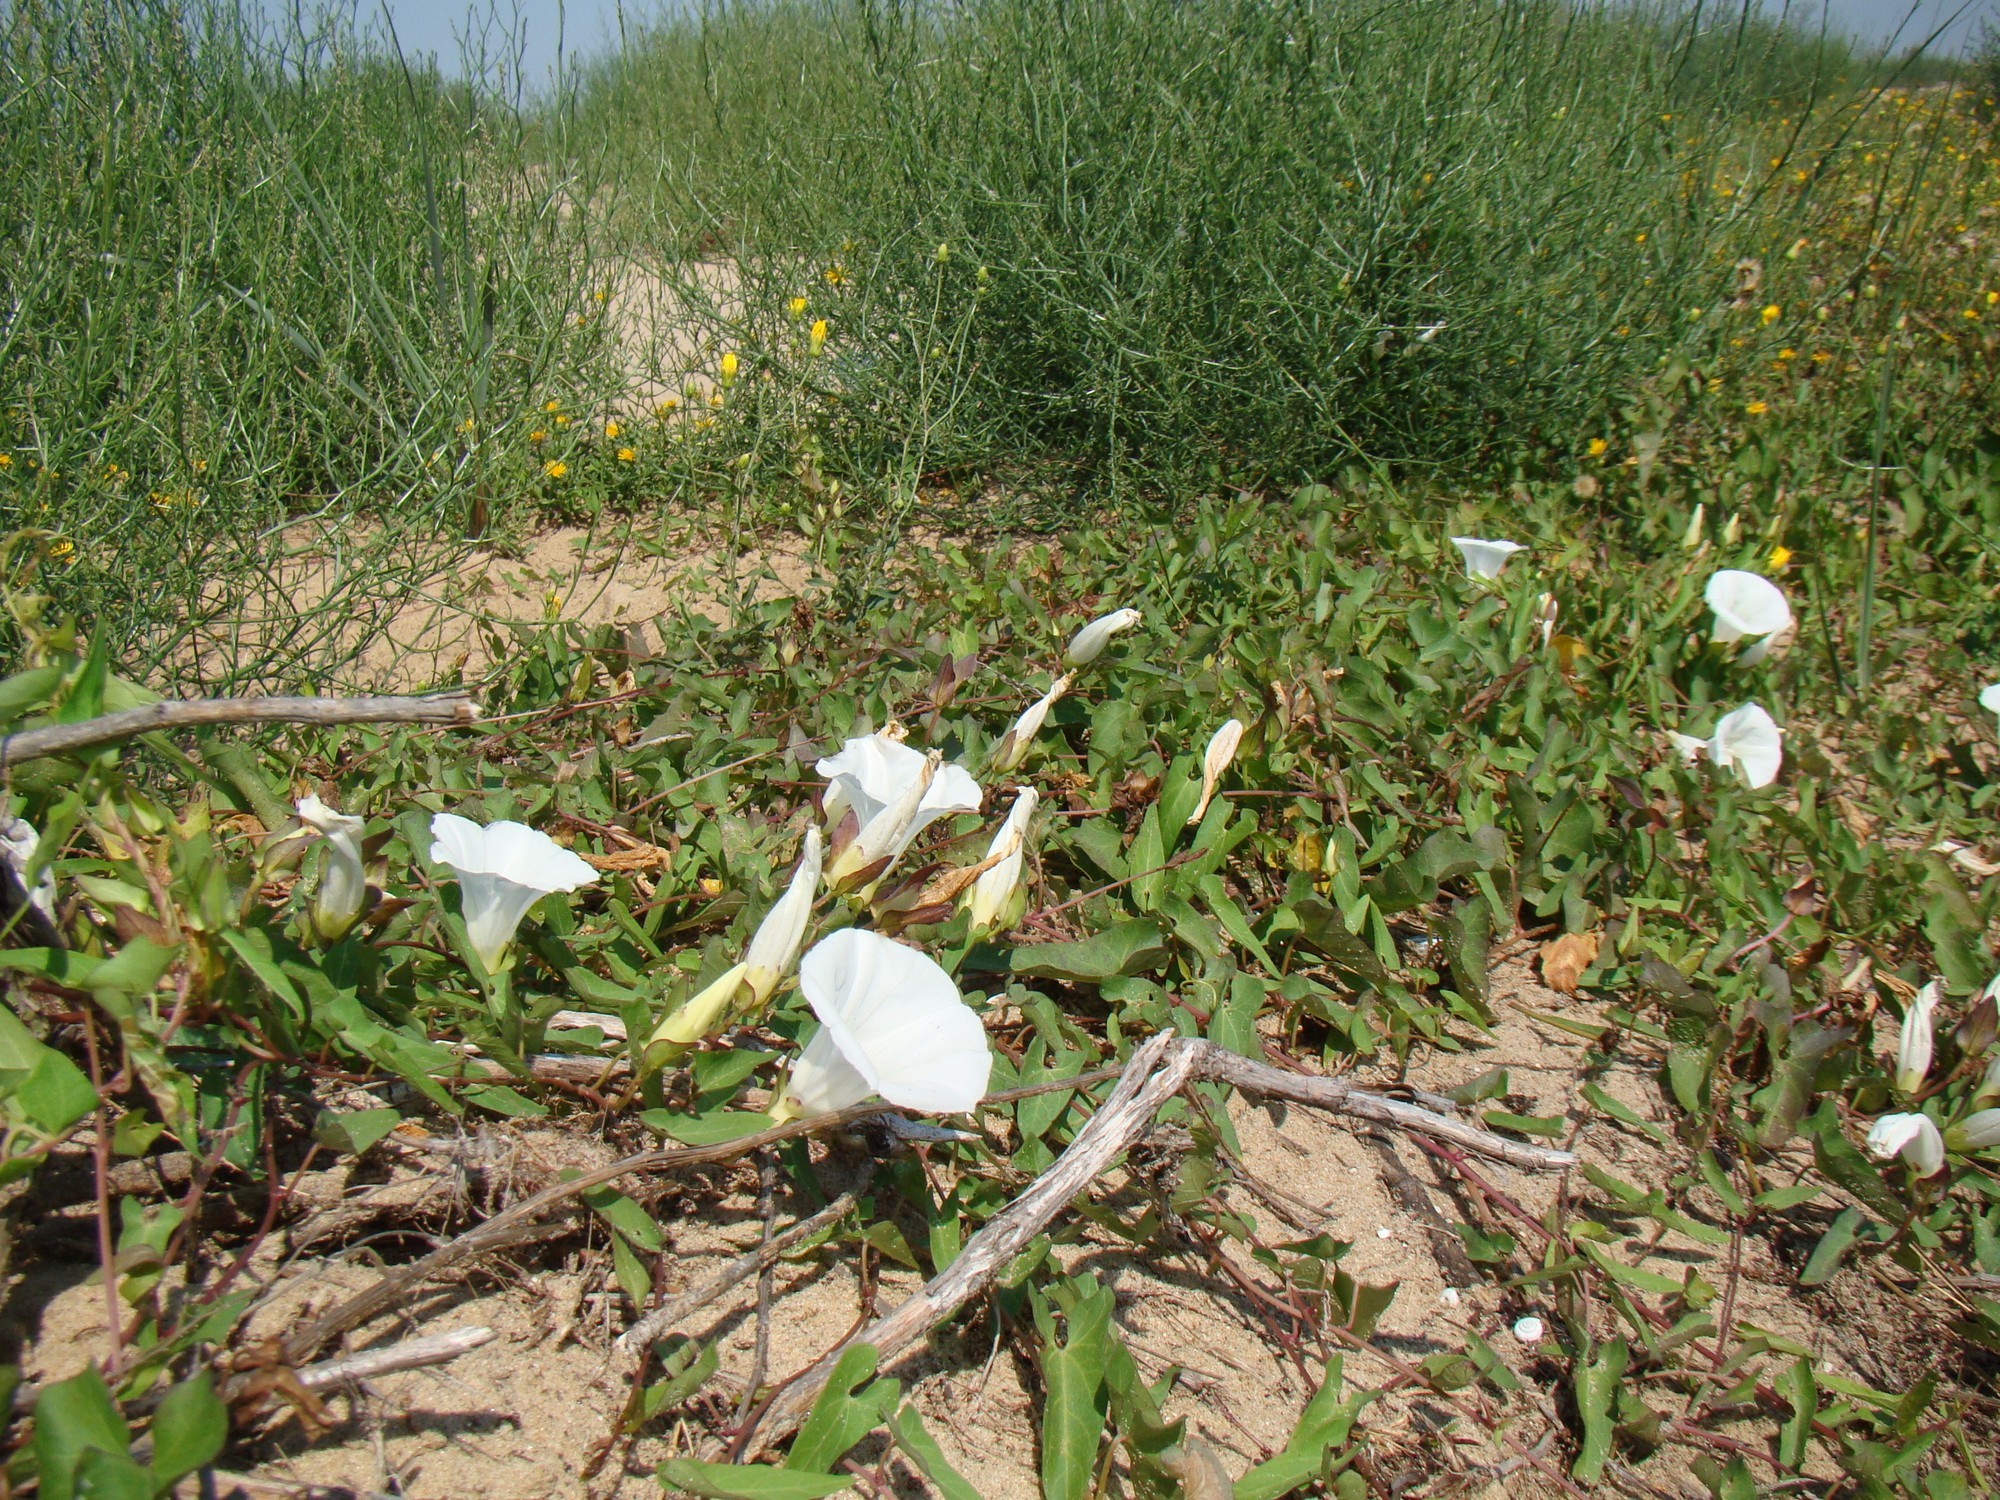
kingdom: Plantae
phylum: Tracheophyta
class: Magnoliopsida
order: Solanales
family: Convolvulaceae
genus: Calystegia
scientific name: Calystegia sepium
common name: Hedge bindweed
